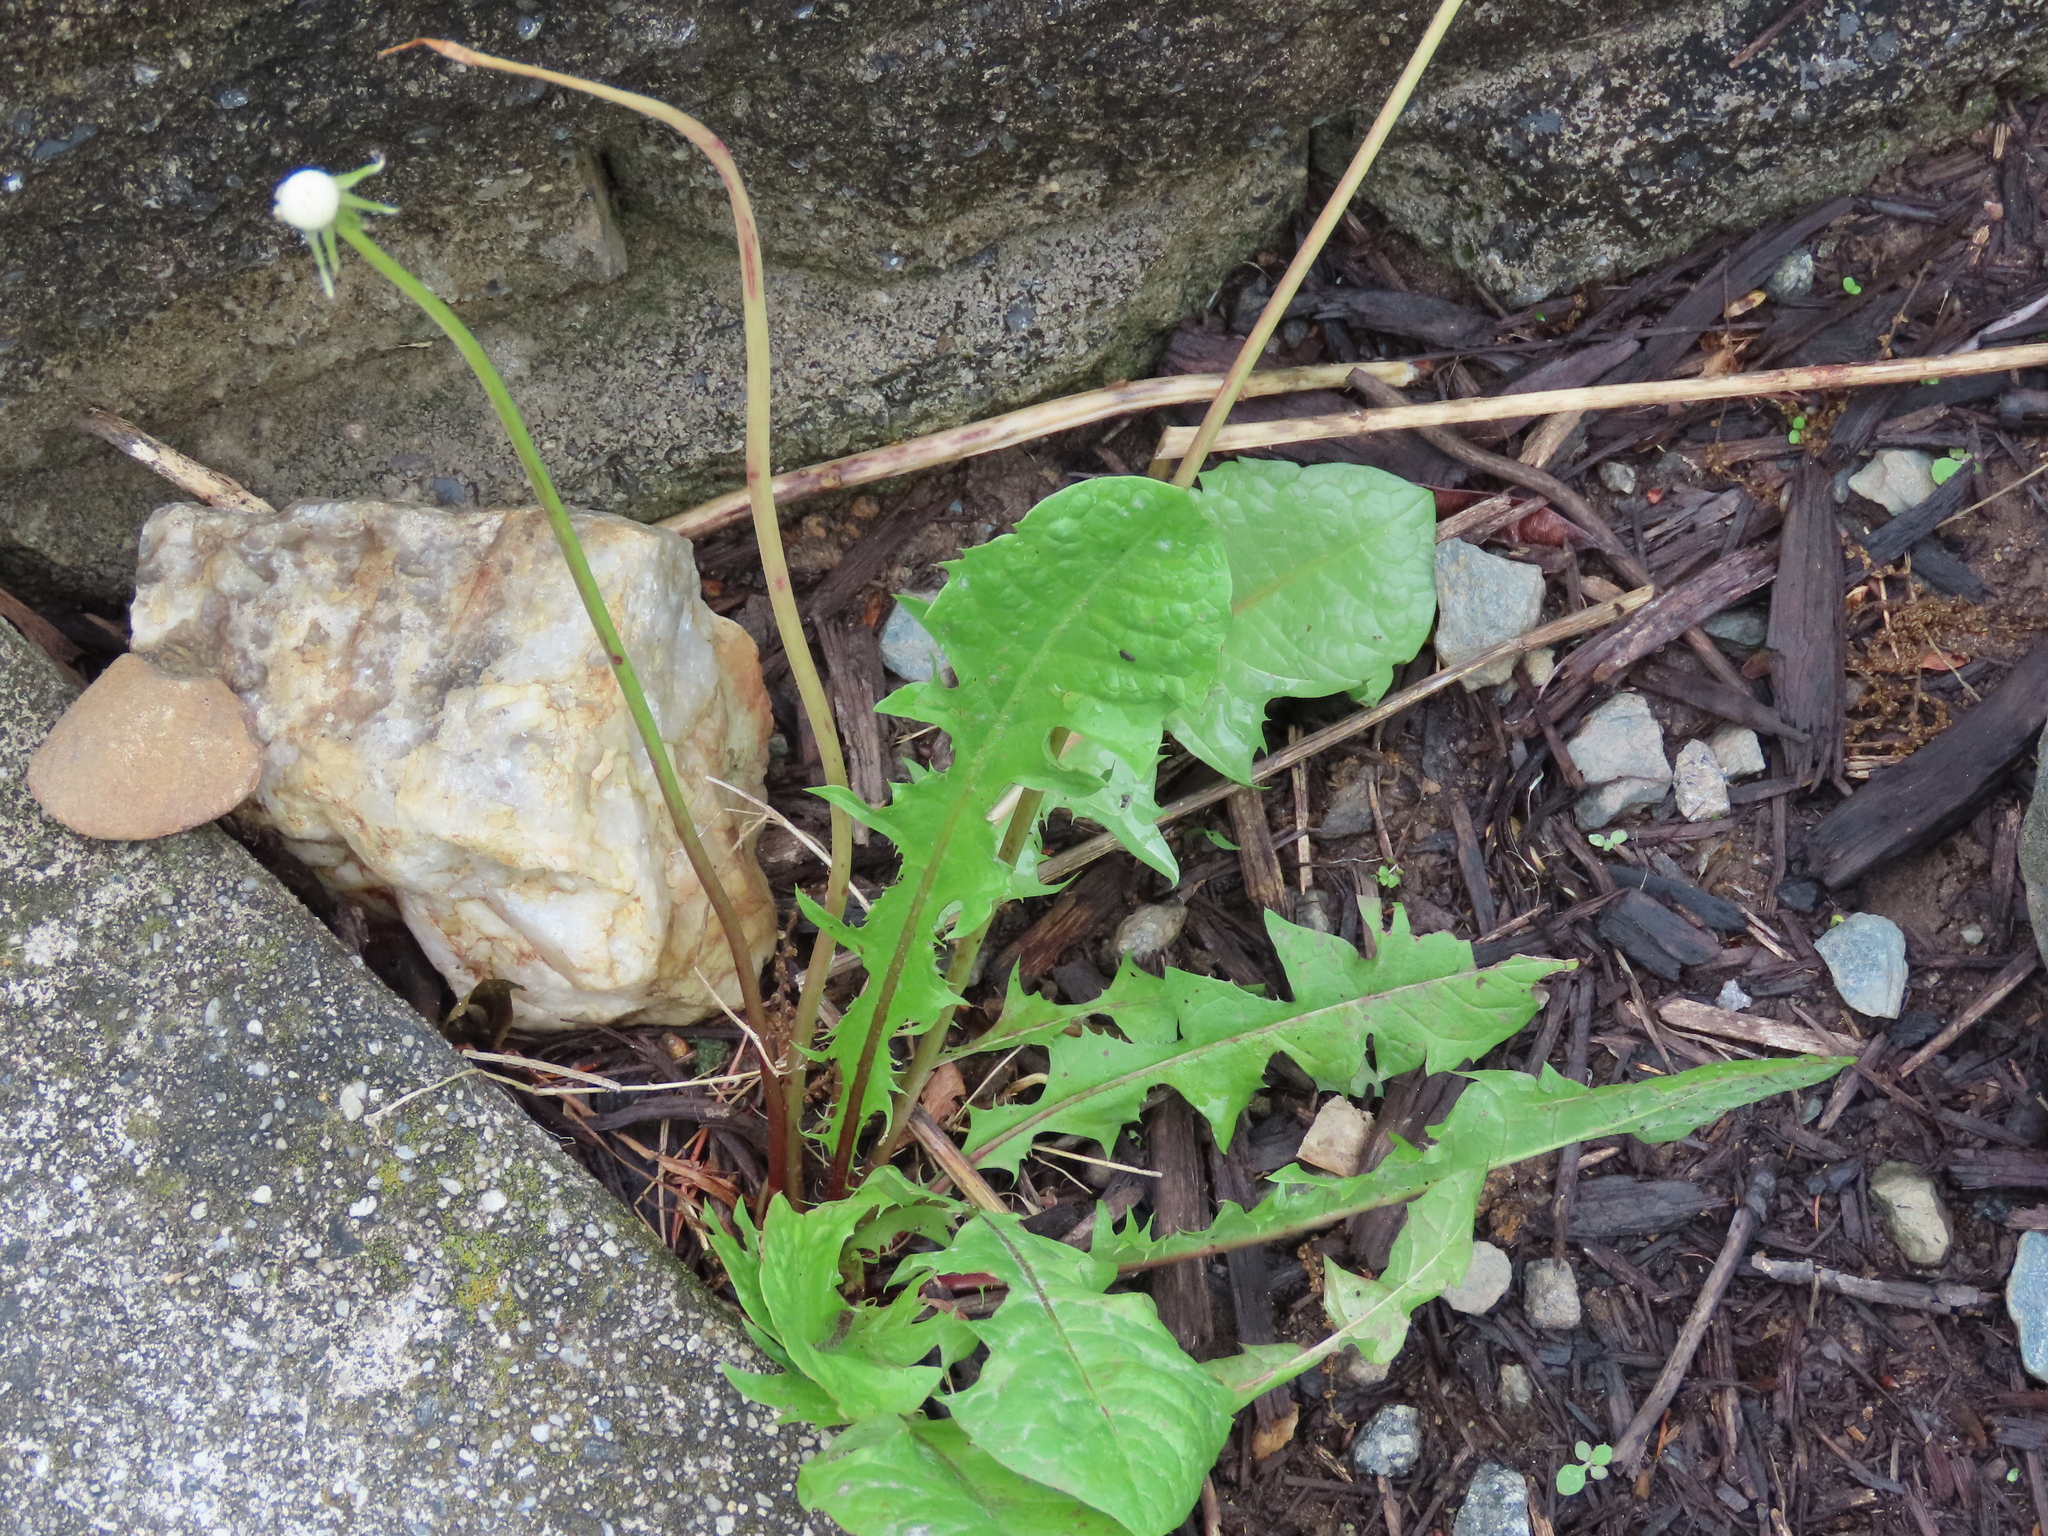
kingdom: Plantae
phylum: Tracheophyta
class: Magnoliopsida
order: Asterales
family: Asteraceae
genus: Taraxacum
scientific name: Taraxacum officinale
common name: Common dandelion
